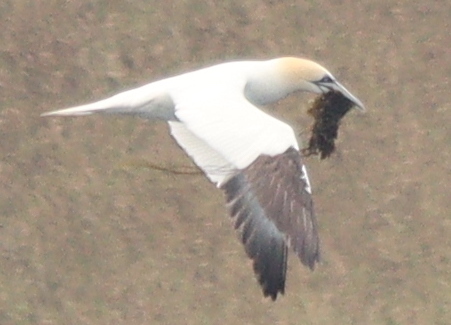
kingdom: Animalia
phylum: Chordata
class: Aves
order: Suliformes
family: Sulidae
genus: Morus
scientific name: Morus bassanus
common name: Northern gannet
